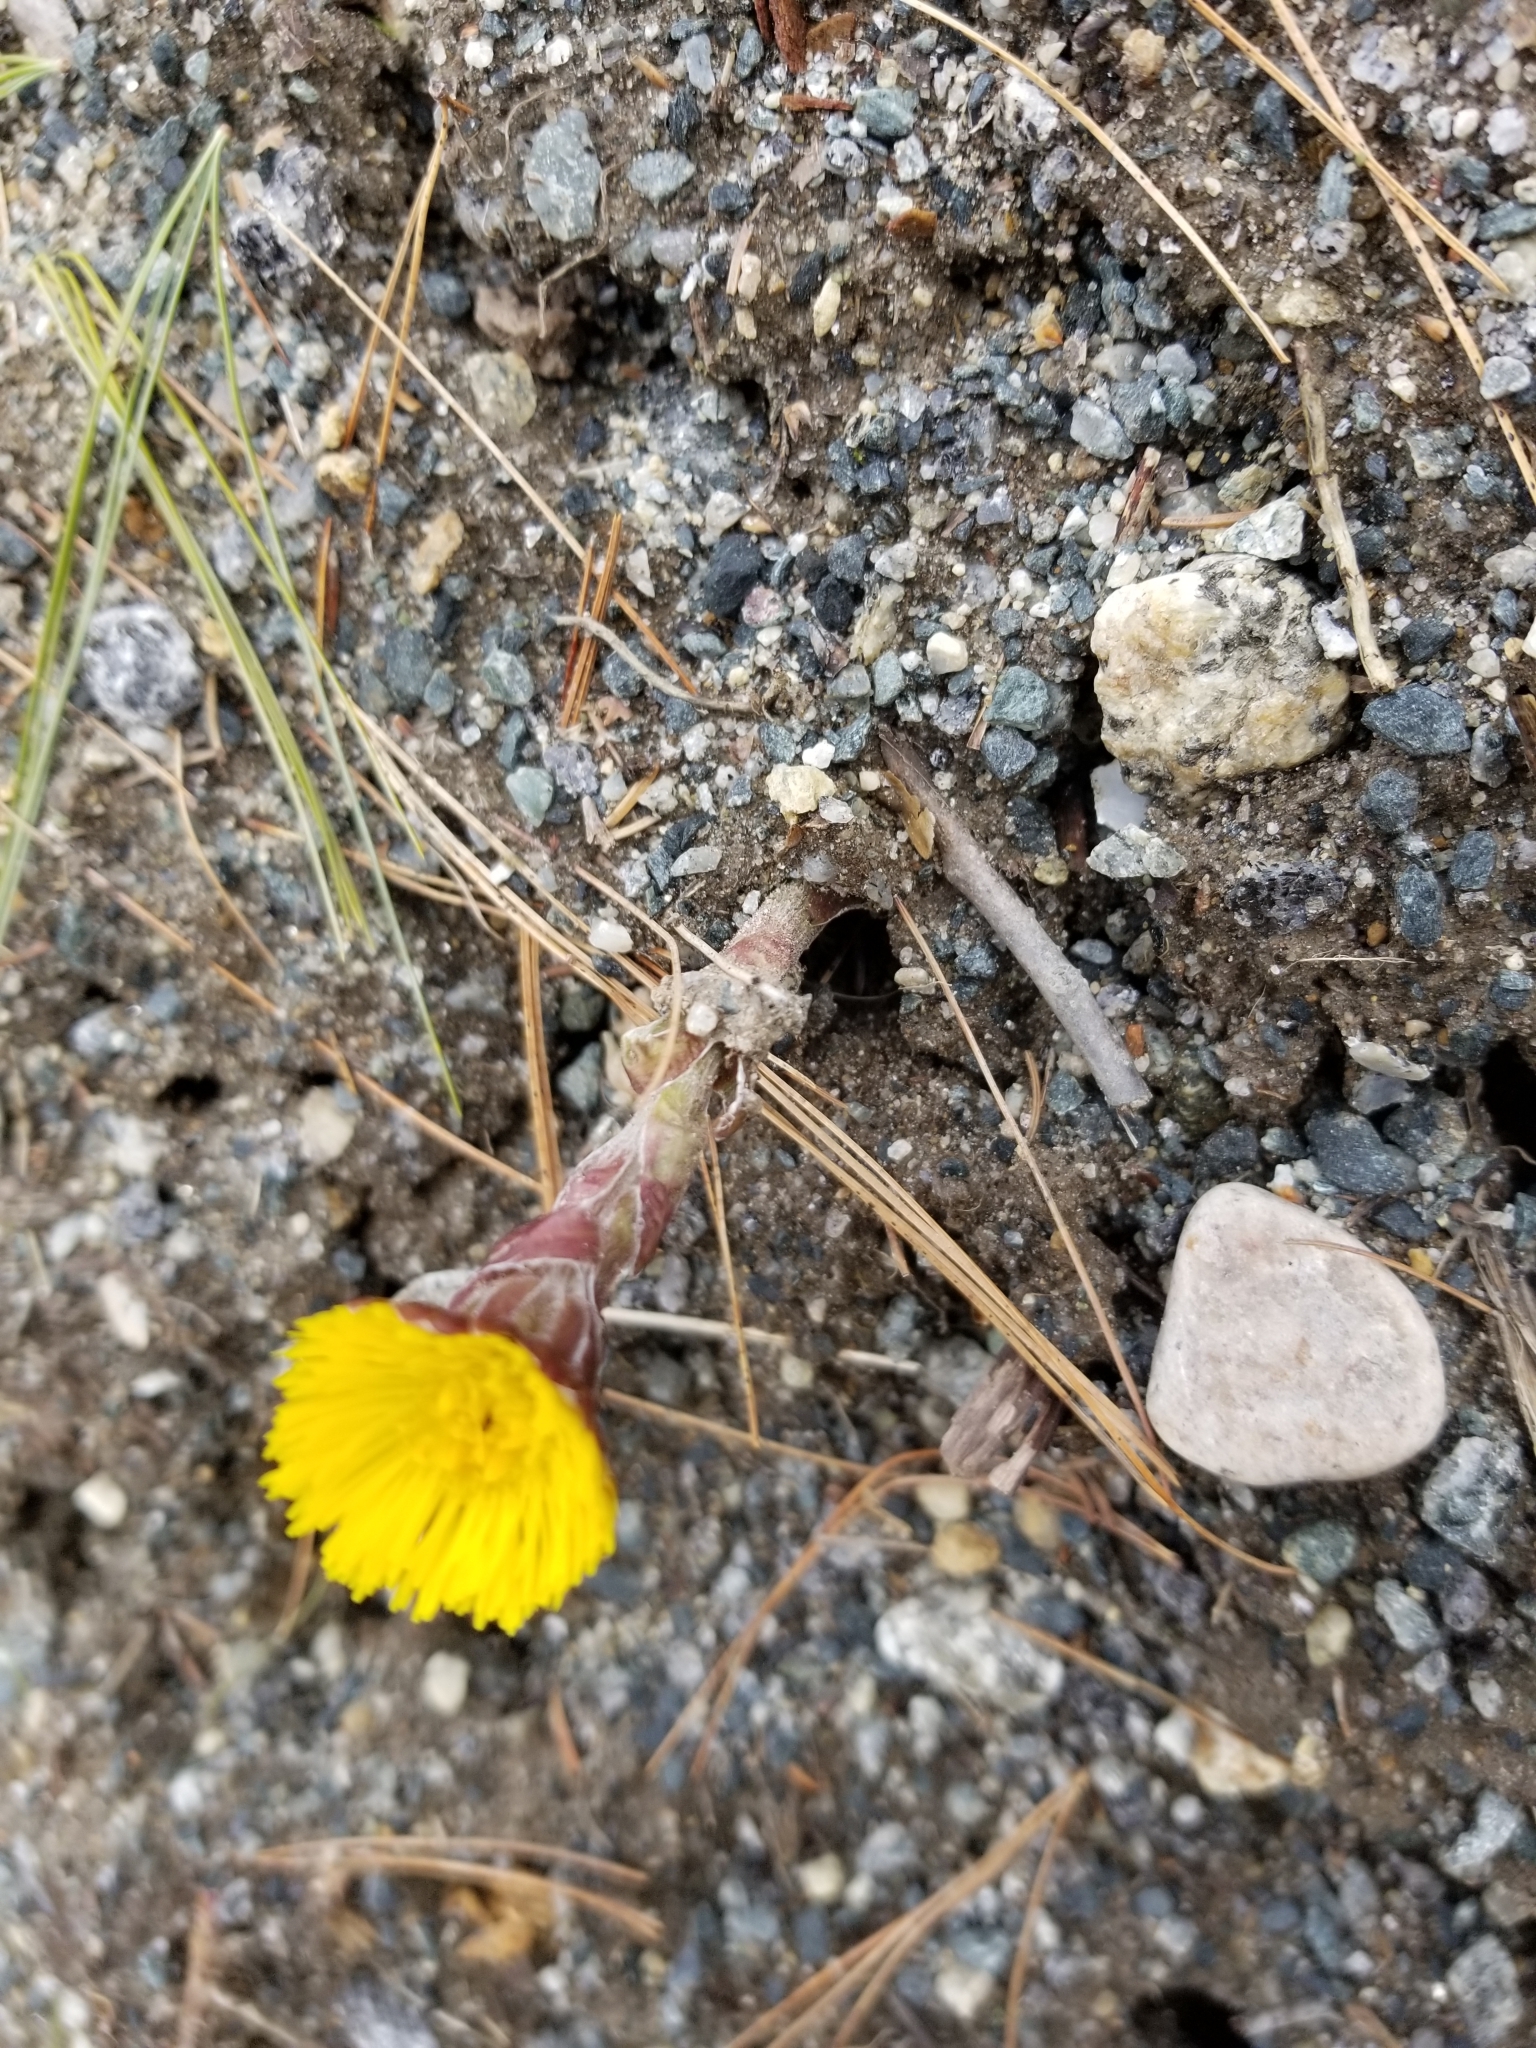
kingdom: Plantae
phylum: Tracheophyta
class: Magnoliopsida
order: Asterales
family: Asteraceae
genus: Tussilago
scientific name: Tussilago farfara
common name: Coltsfoot
